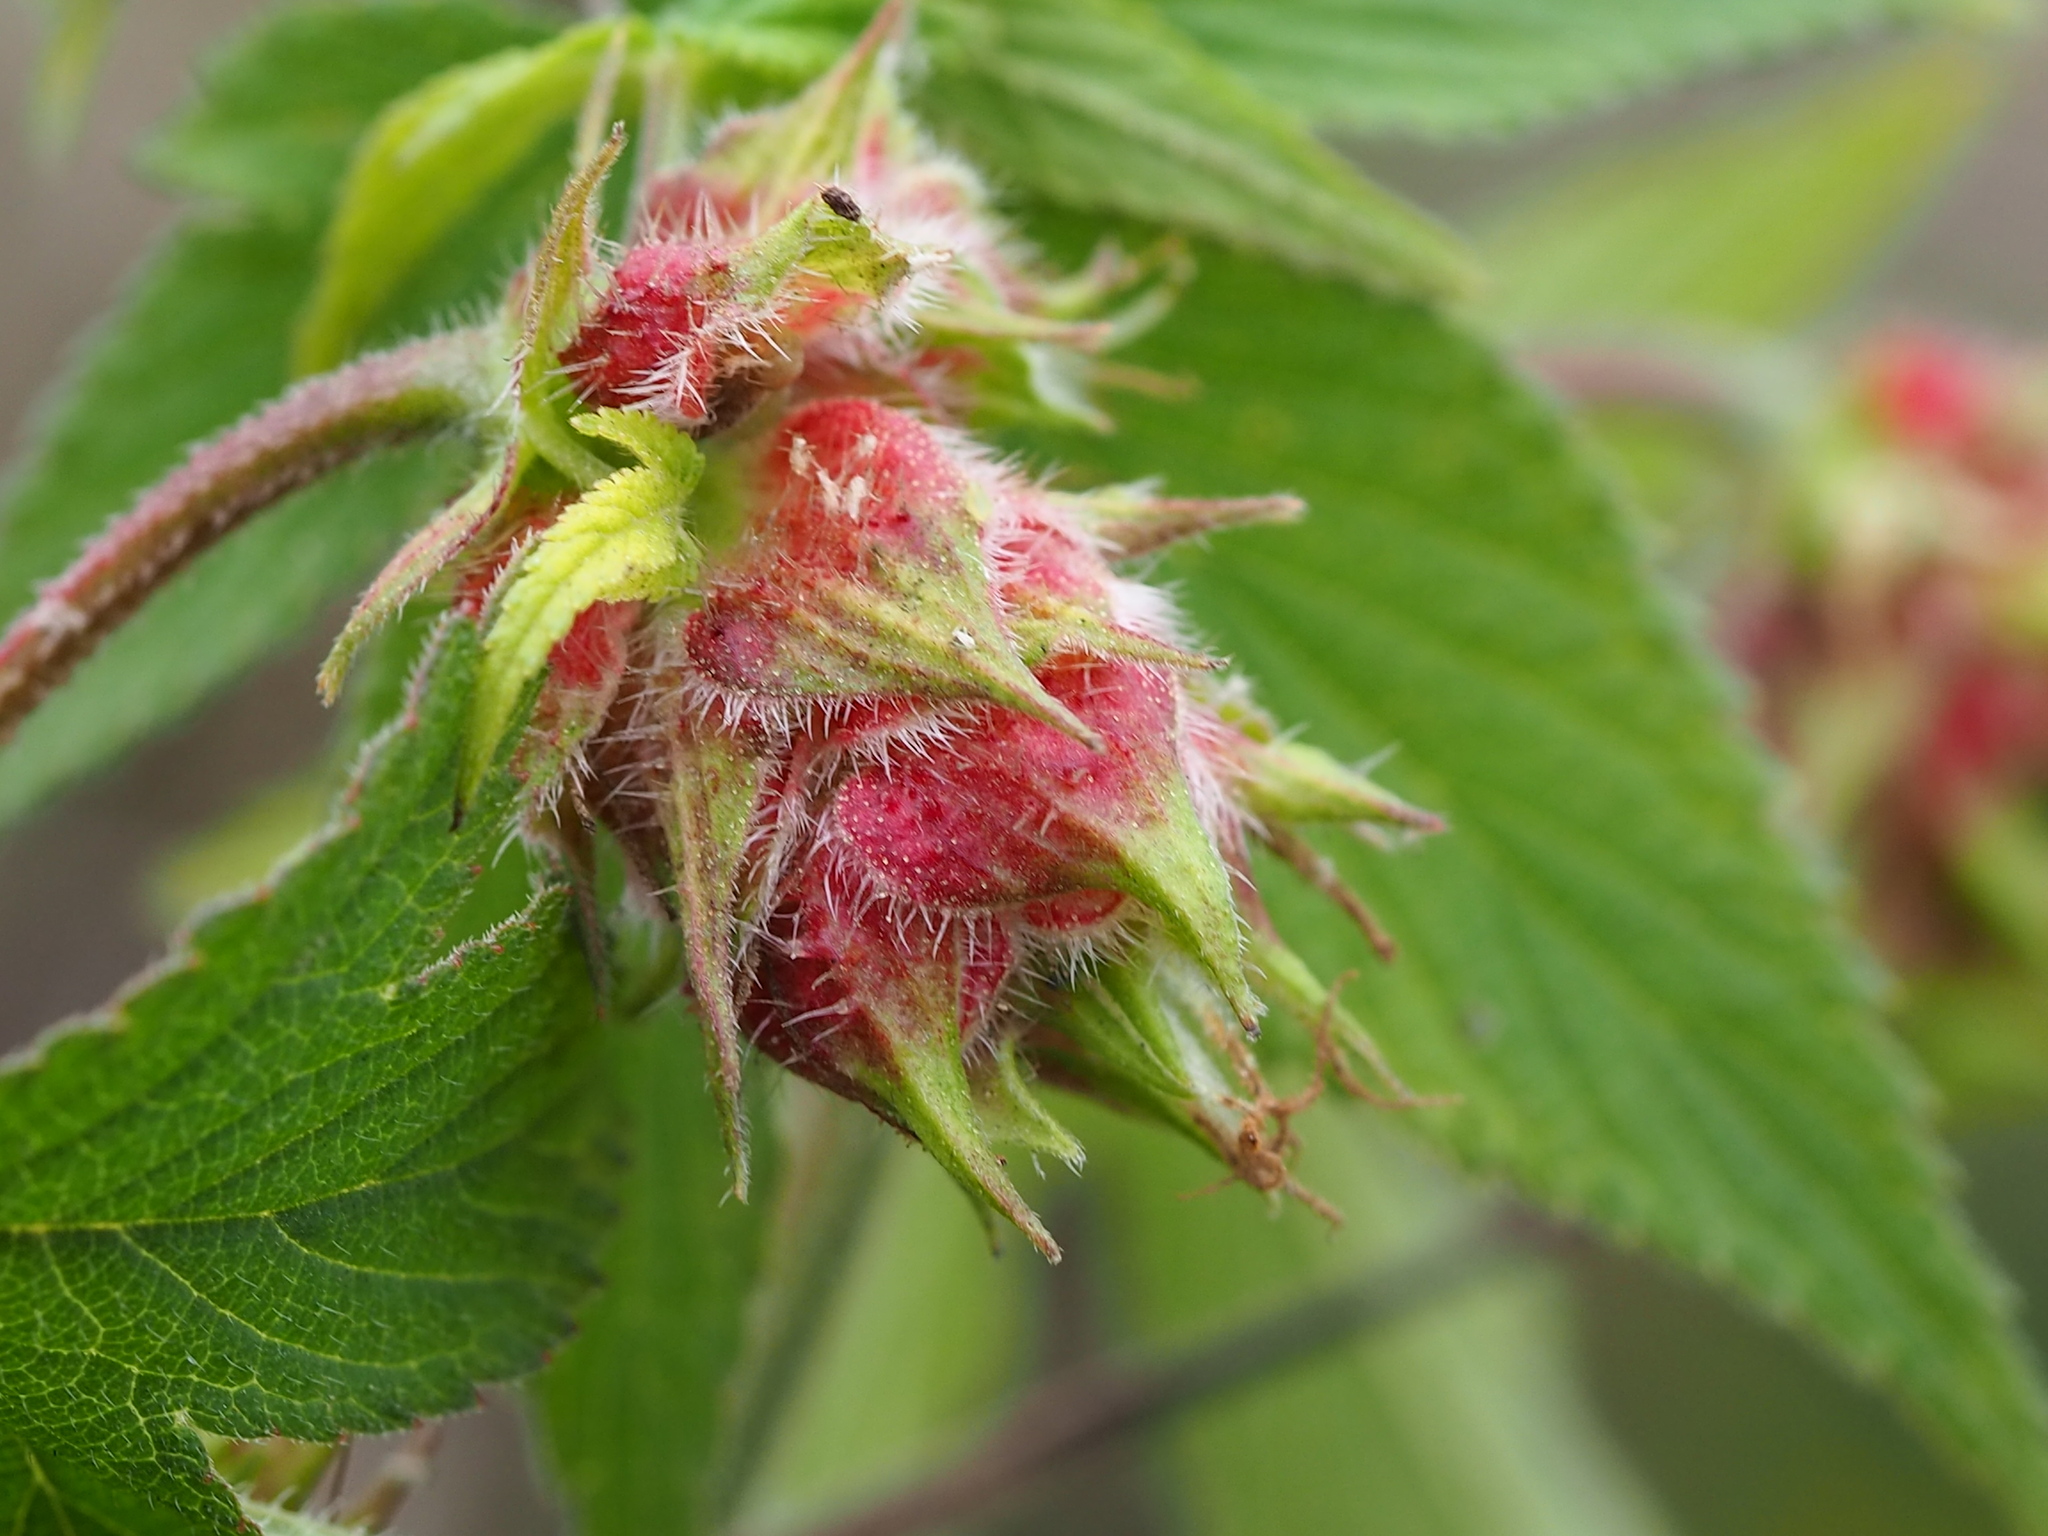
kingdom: Plantae
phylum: Tracheophyta
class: Magnoliopsida
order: Rosales
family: Cannabaceae
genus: Humulus
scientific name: Humulus scandens
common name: Japanese hop
